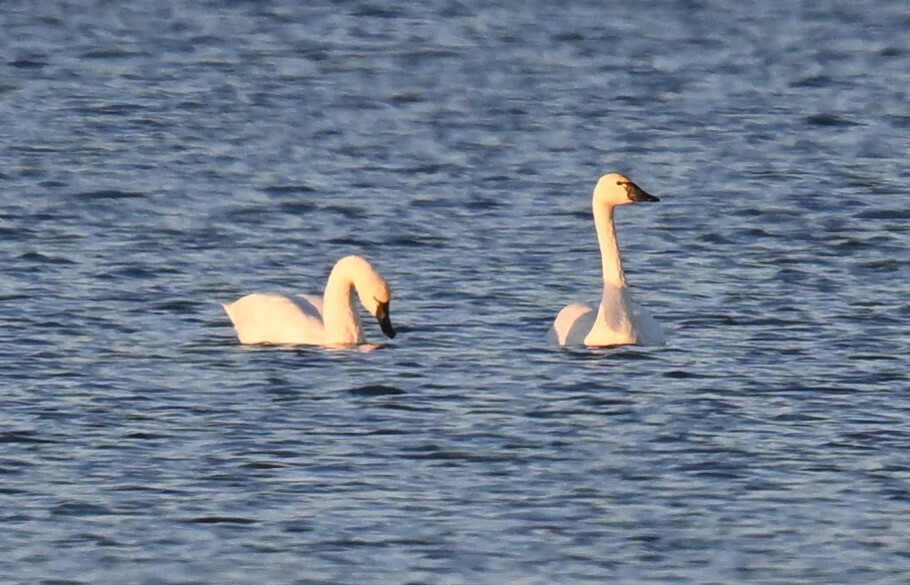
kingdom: Animalia
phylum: Chordata
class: Aves
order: Anseriformes
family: Anatidae
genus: Cygnus
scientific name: Cygnus columbianus
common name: Tundra swan
